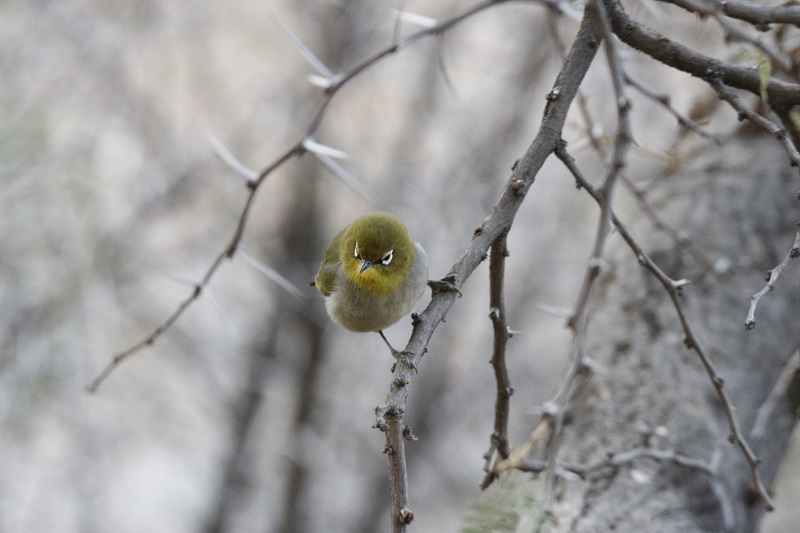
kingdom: Animalia
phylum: Chordata
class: Aves
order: Passeriformes
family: Zosteropidae
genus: Zosterops
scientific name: Zosterops virens
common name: Cape white-eye
